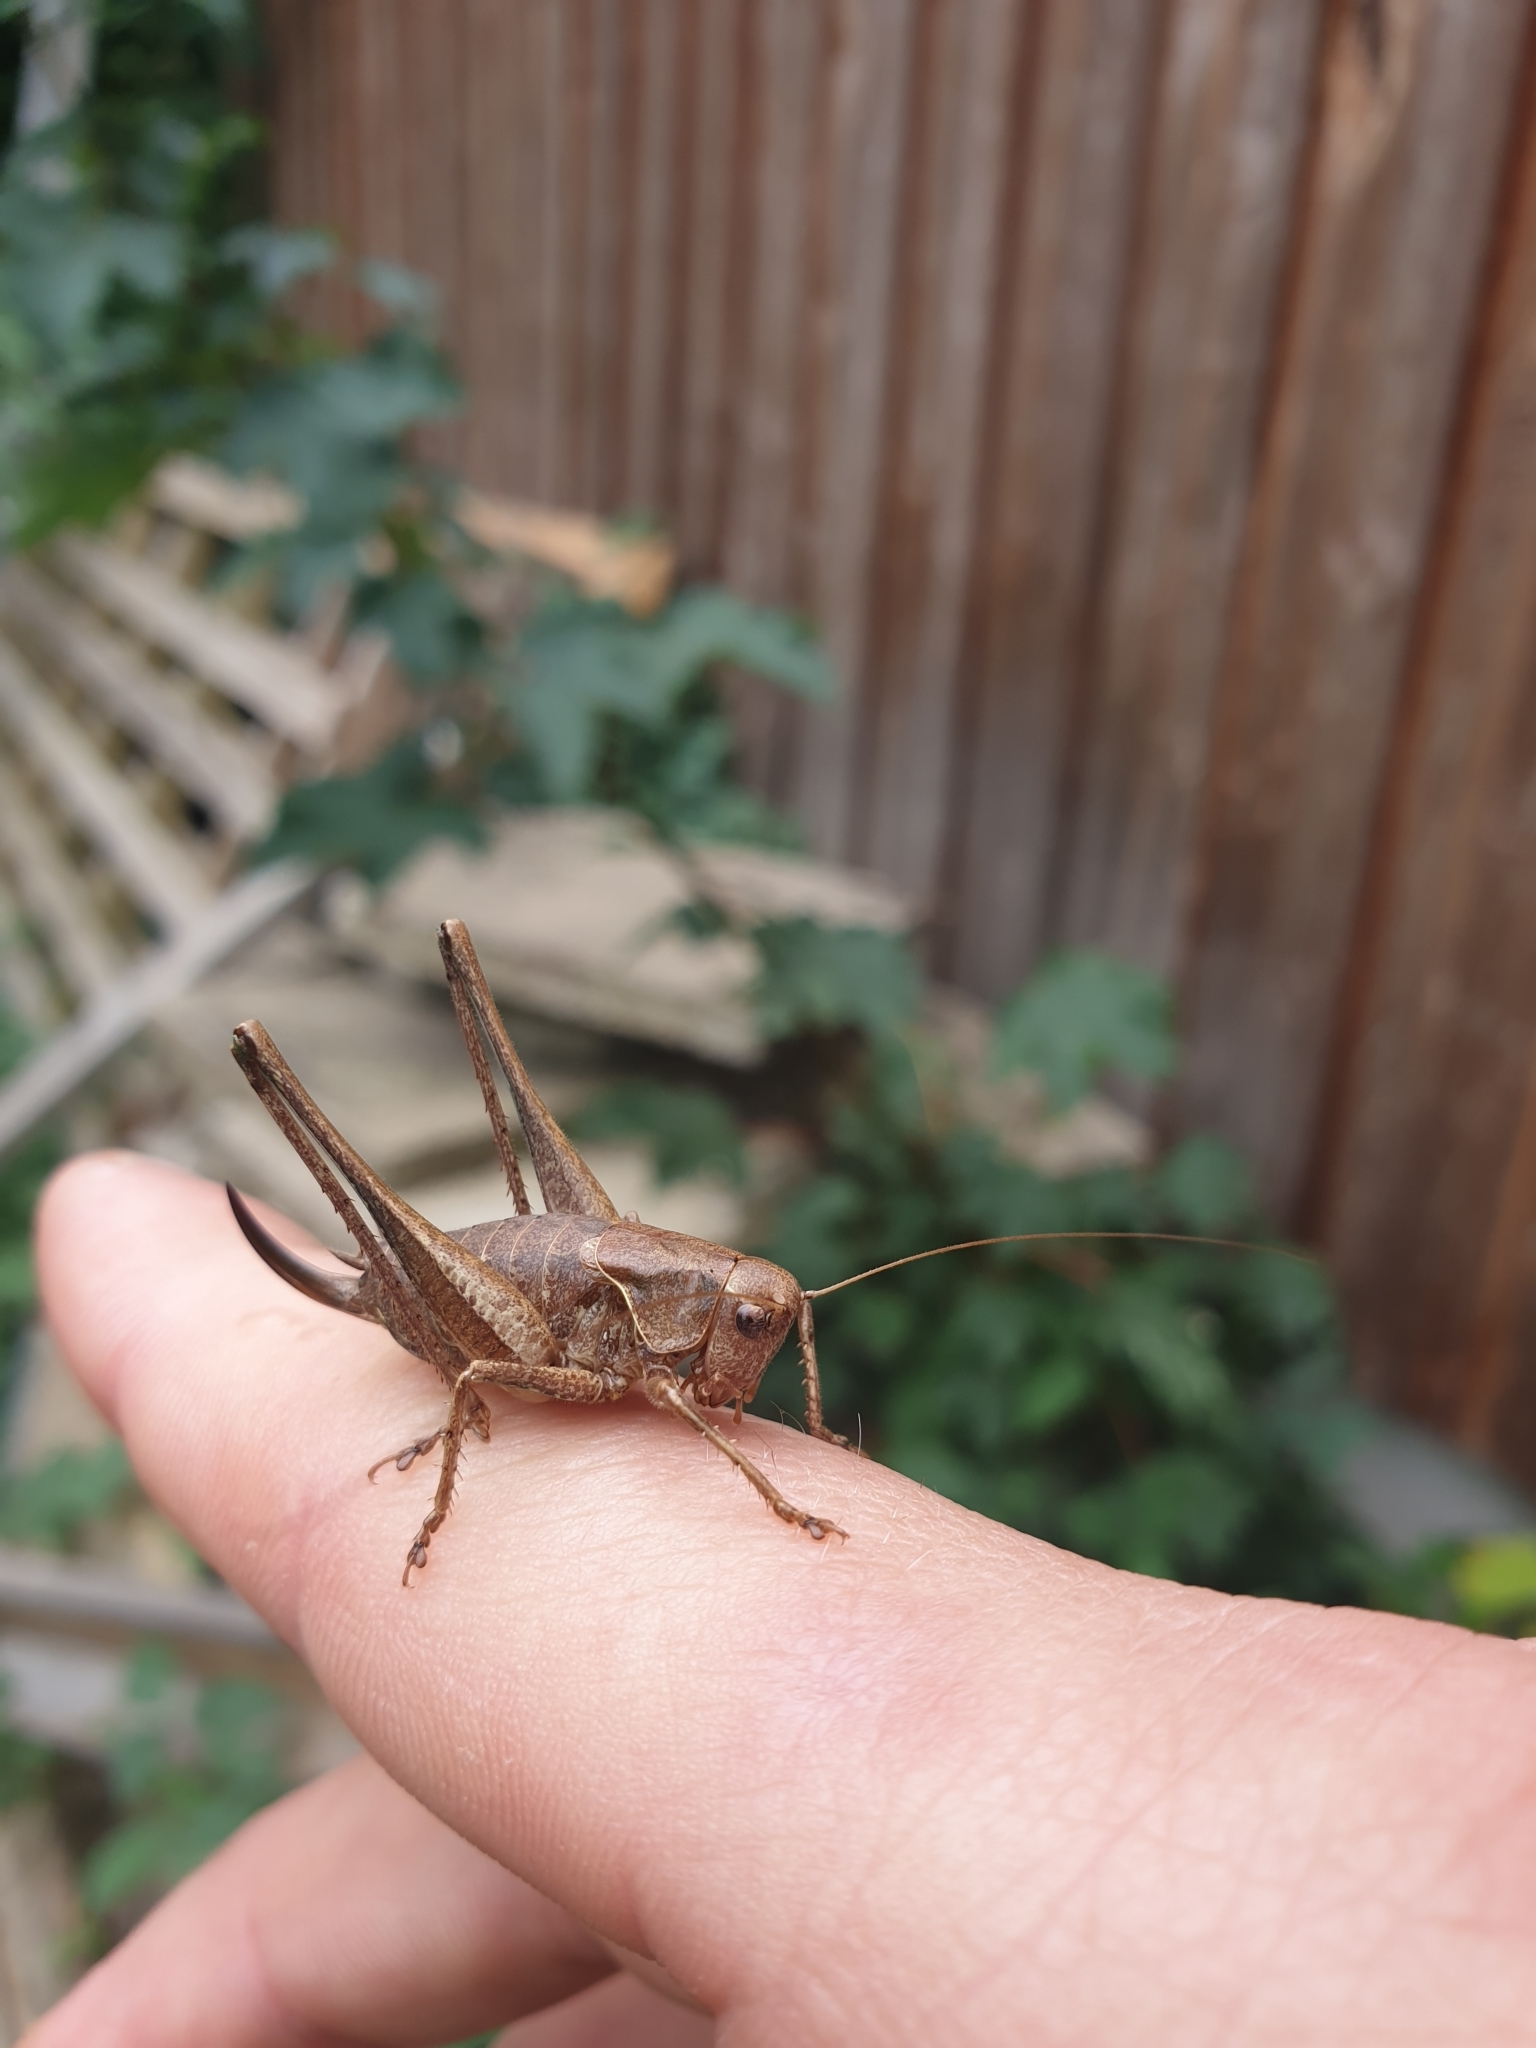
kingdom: Animalia
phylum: Arthropoda
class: Insecta
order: Orthoptera
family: Tettigoniidae
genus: Pholidoptera
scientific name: Pholidoptera griseoaptera
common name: Dark bush-cricket
